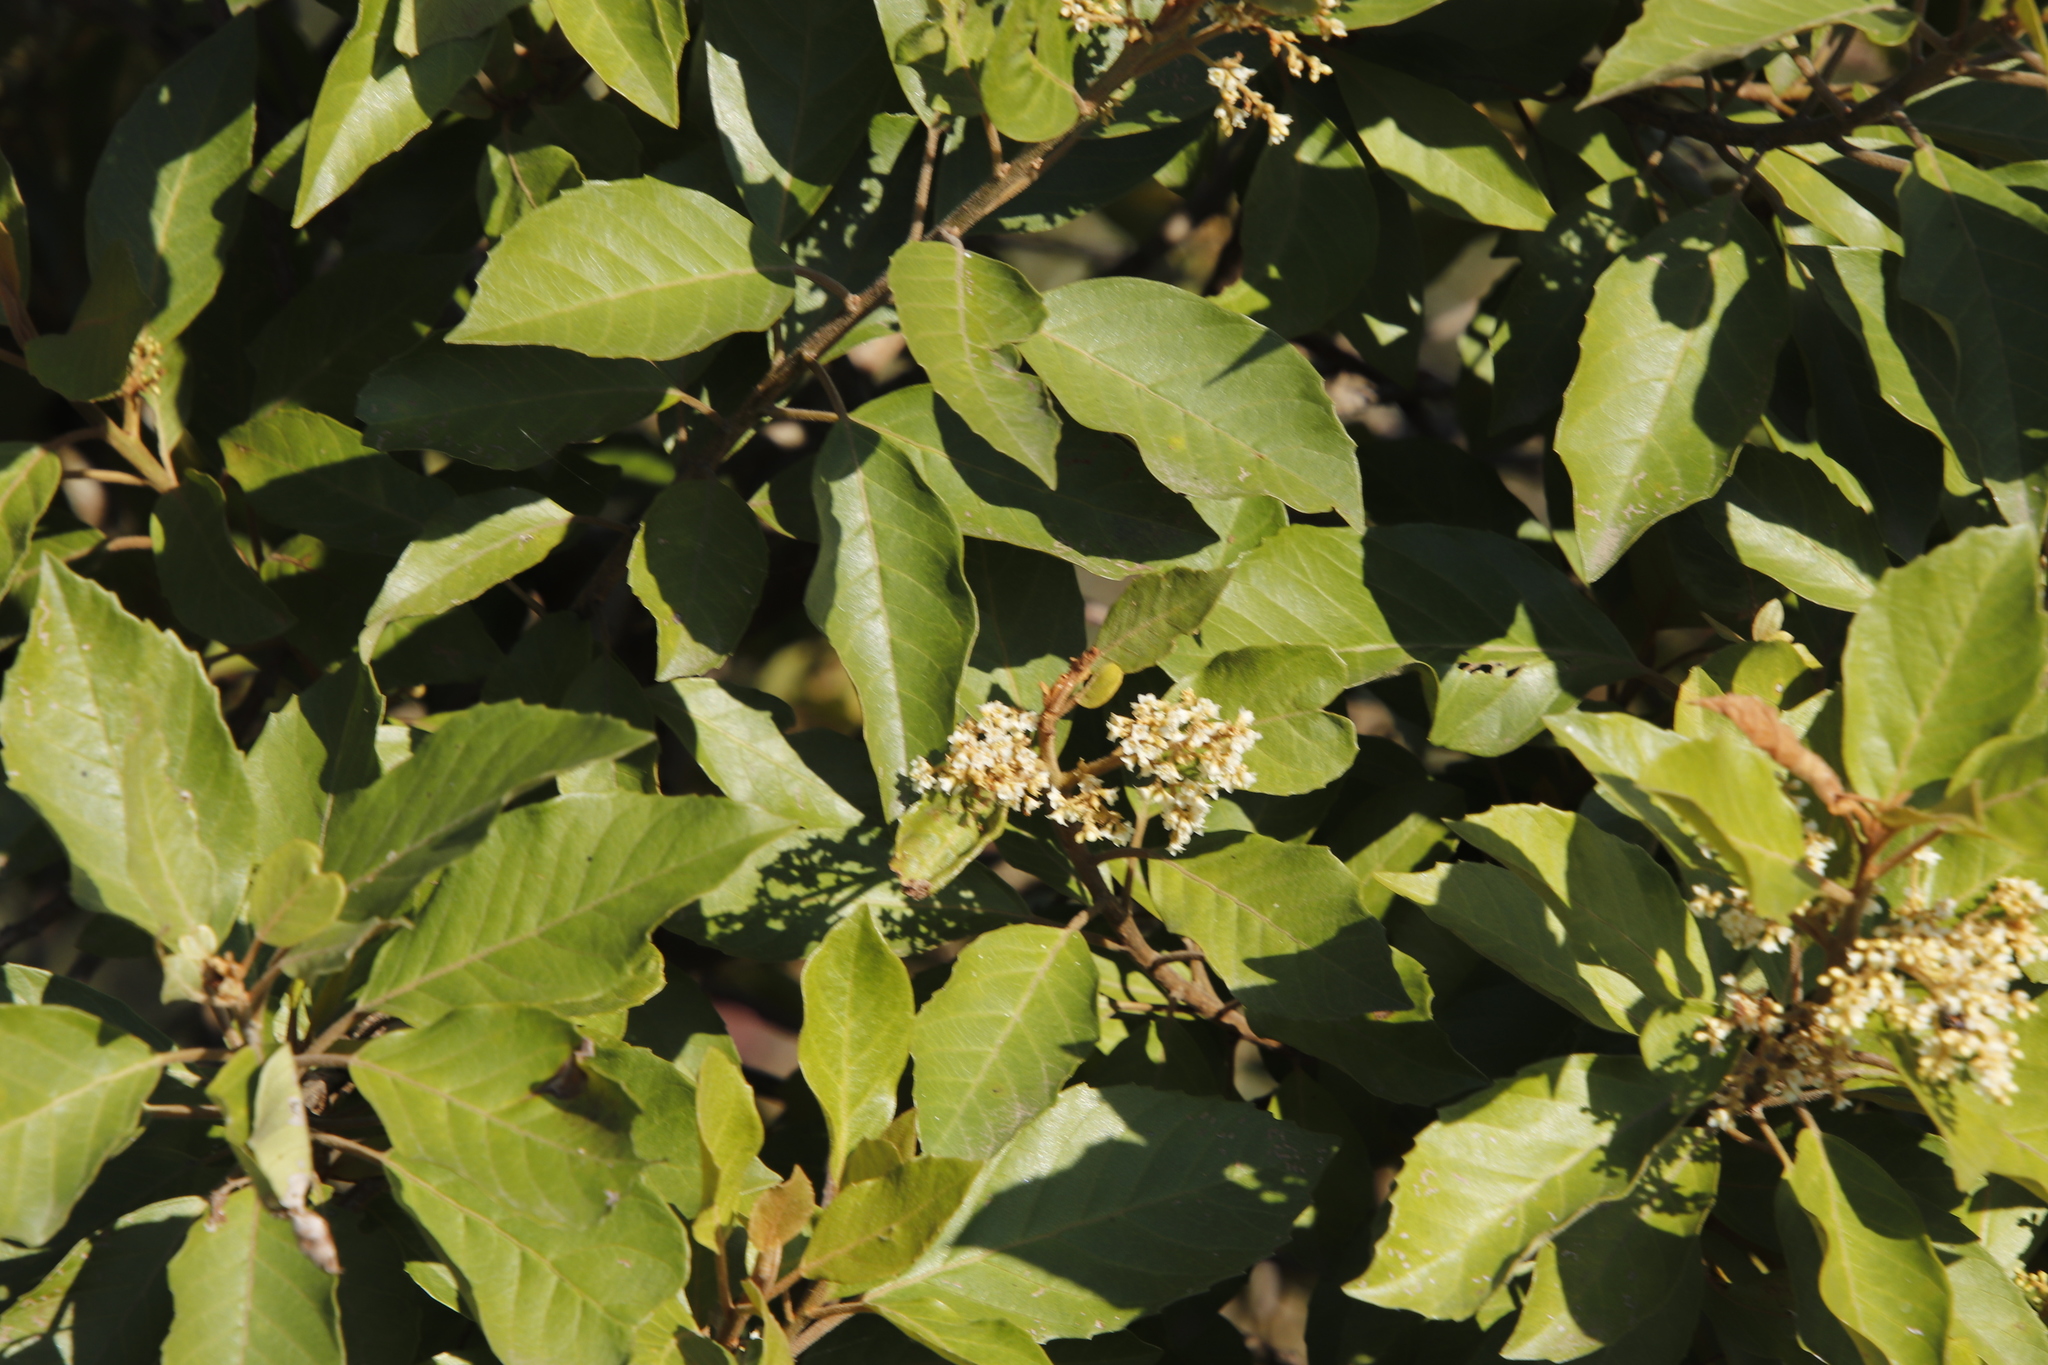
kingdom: Plantae
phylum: Tracheophyta
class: Magnoliopsida
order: Ericales
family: Primulaceae
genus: Maesa
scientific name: Maesa lanceolata
